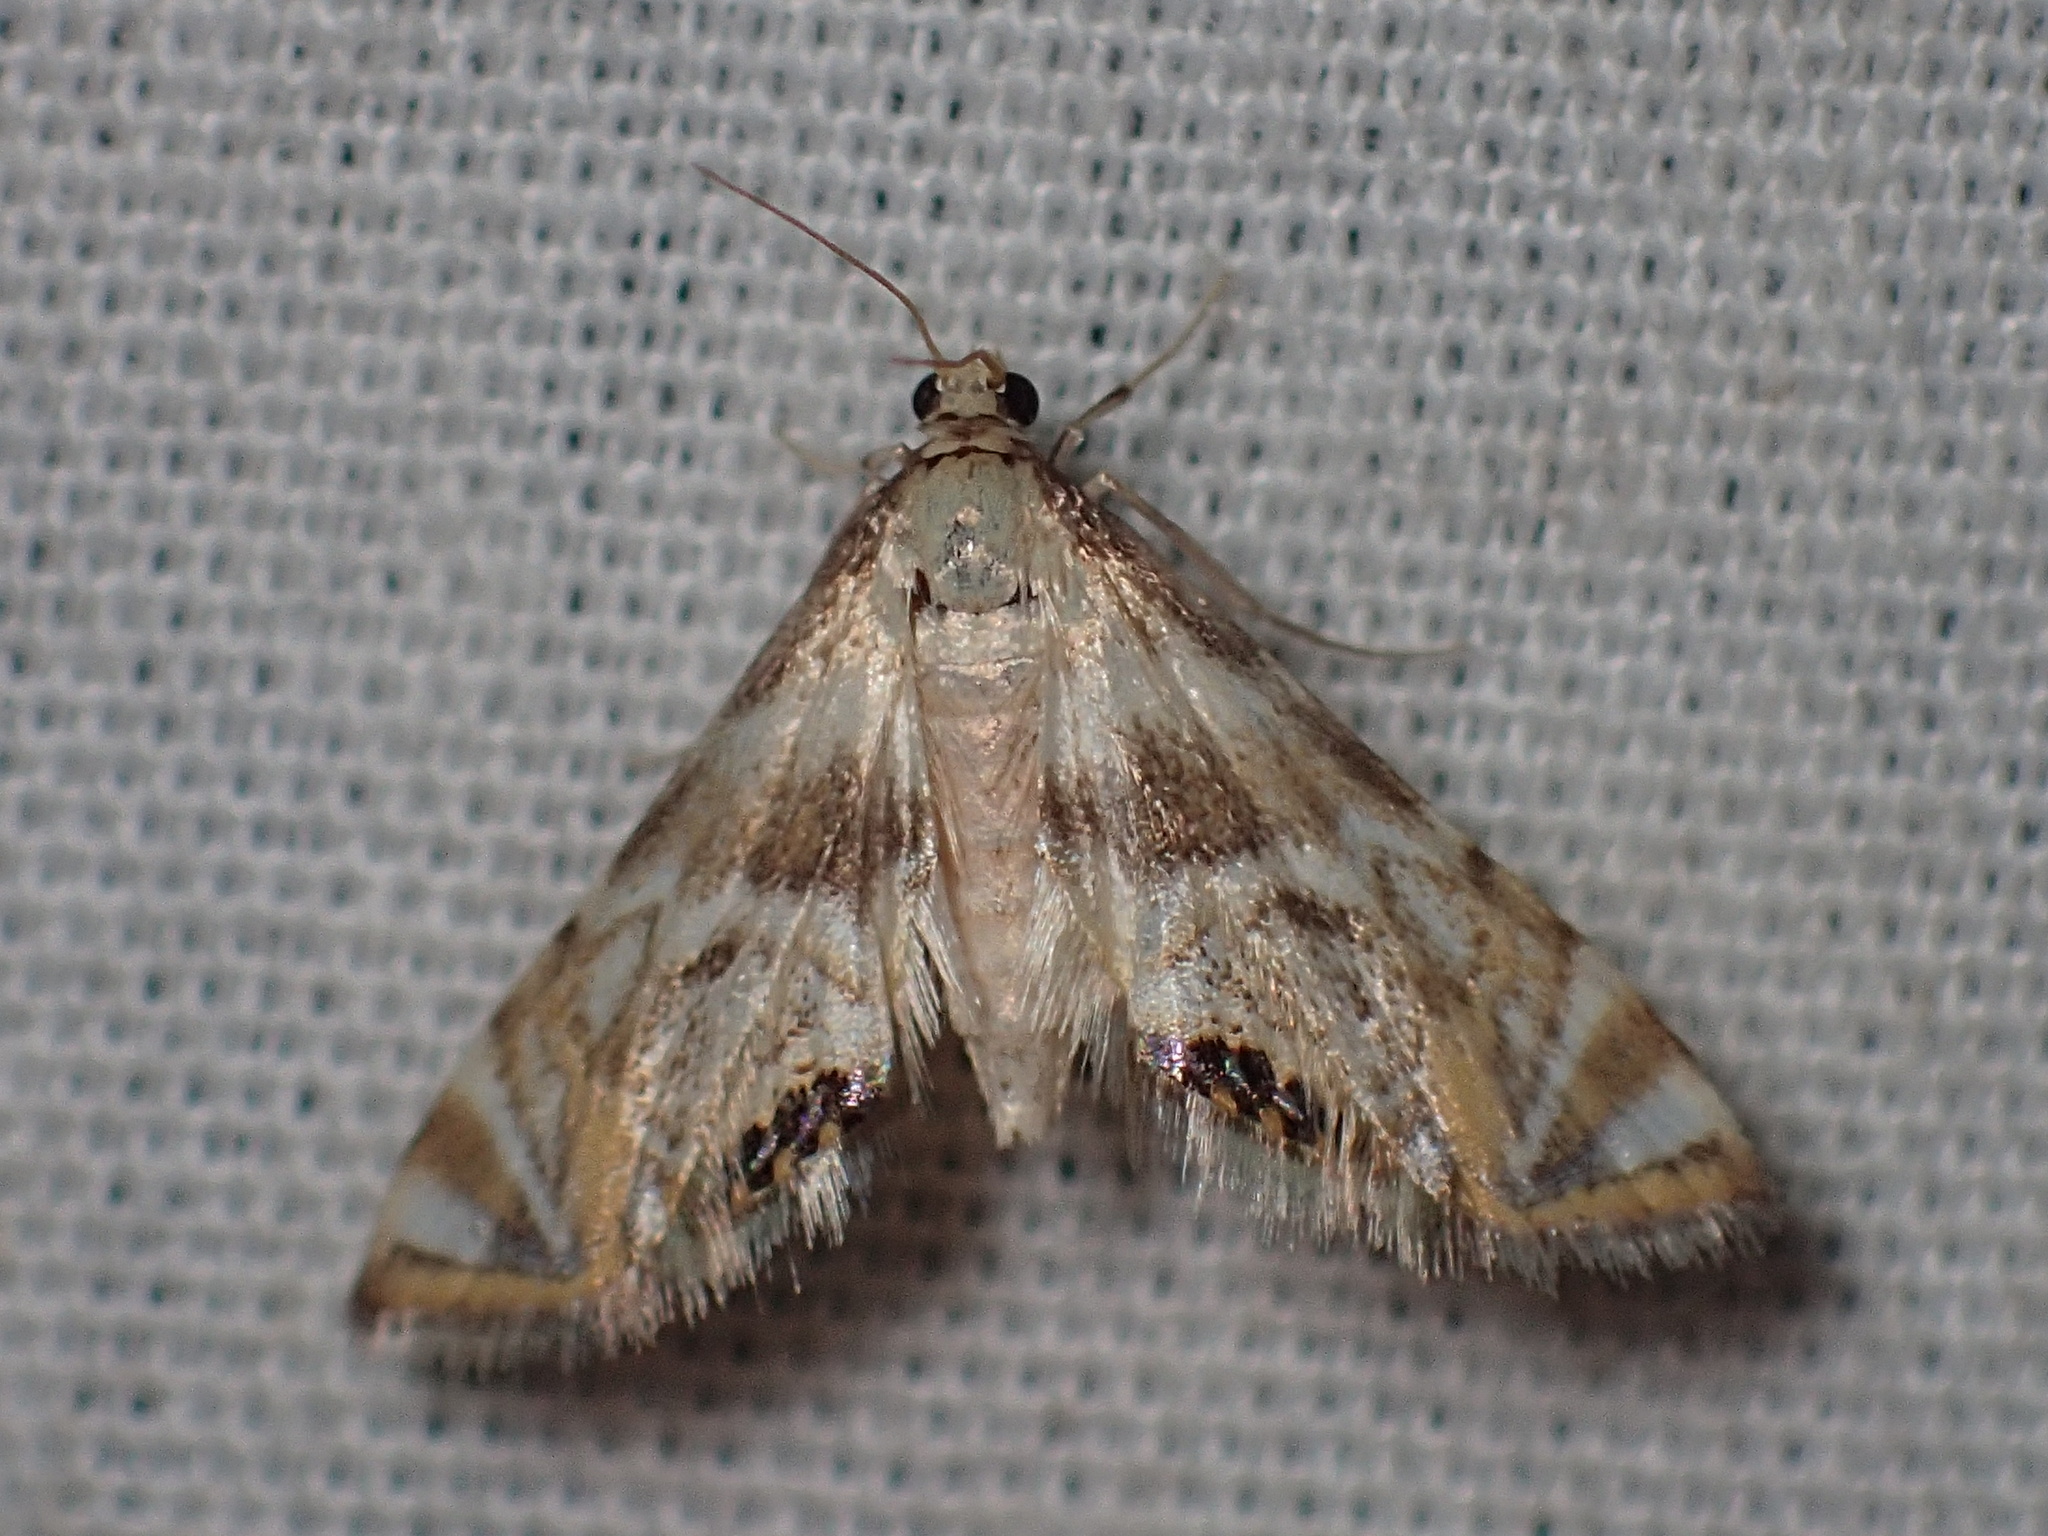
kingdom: Animalia
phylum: Arthropoda
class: Insecta
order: Lepidoptera
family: Crambidae
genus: Eoparargyractis
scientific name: Eoparargyractis irroratalis
